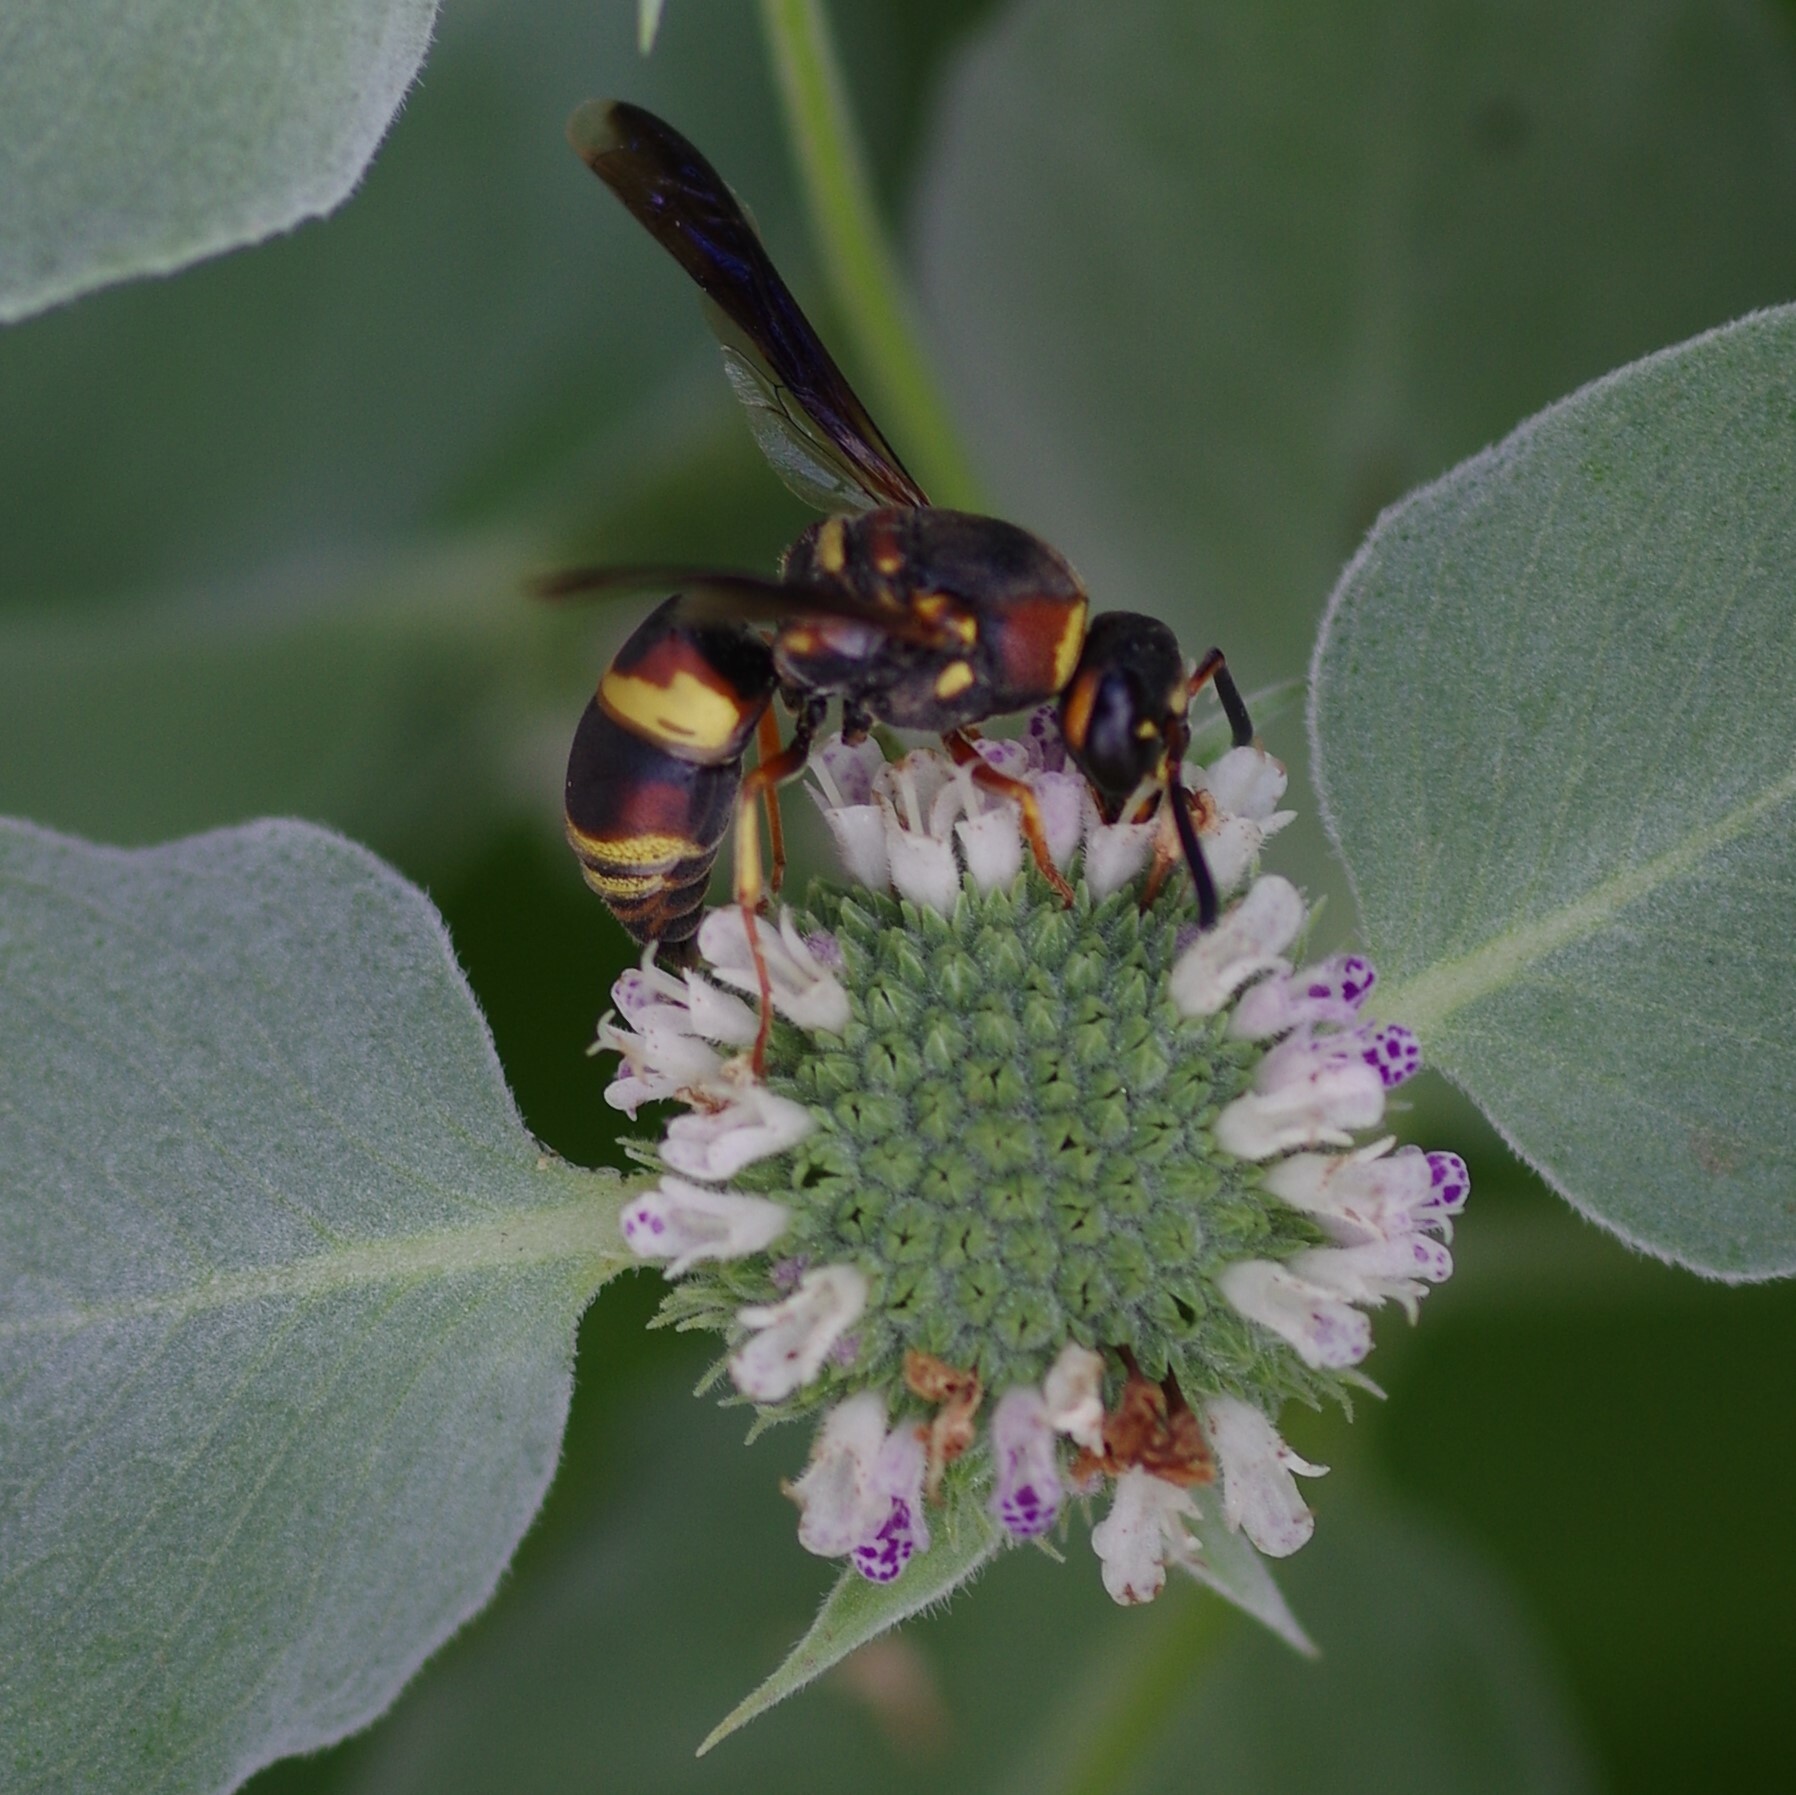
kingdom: Animalia
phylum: Arthropoda
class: Insecta
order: Hymenoptera
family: Eumenidae
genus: Euodynerus
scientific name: Euodynerus hidalgo
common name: Wasp
